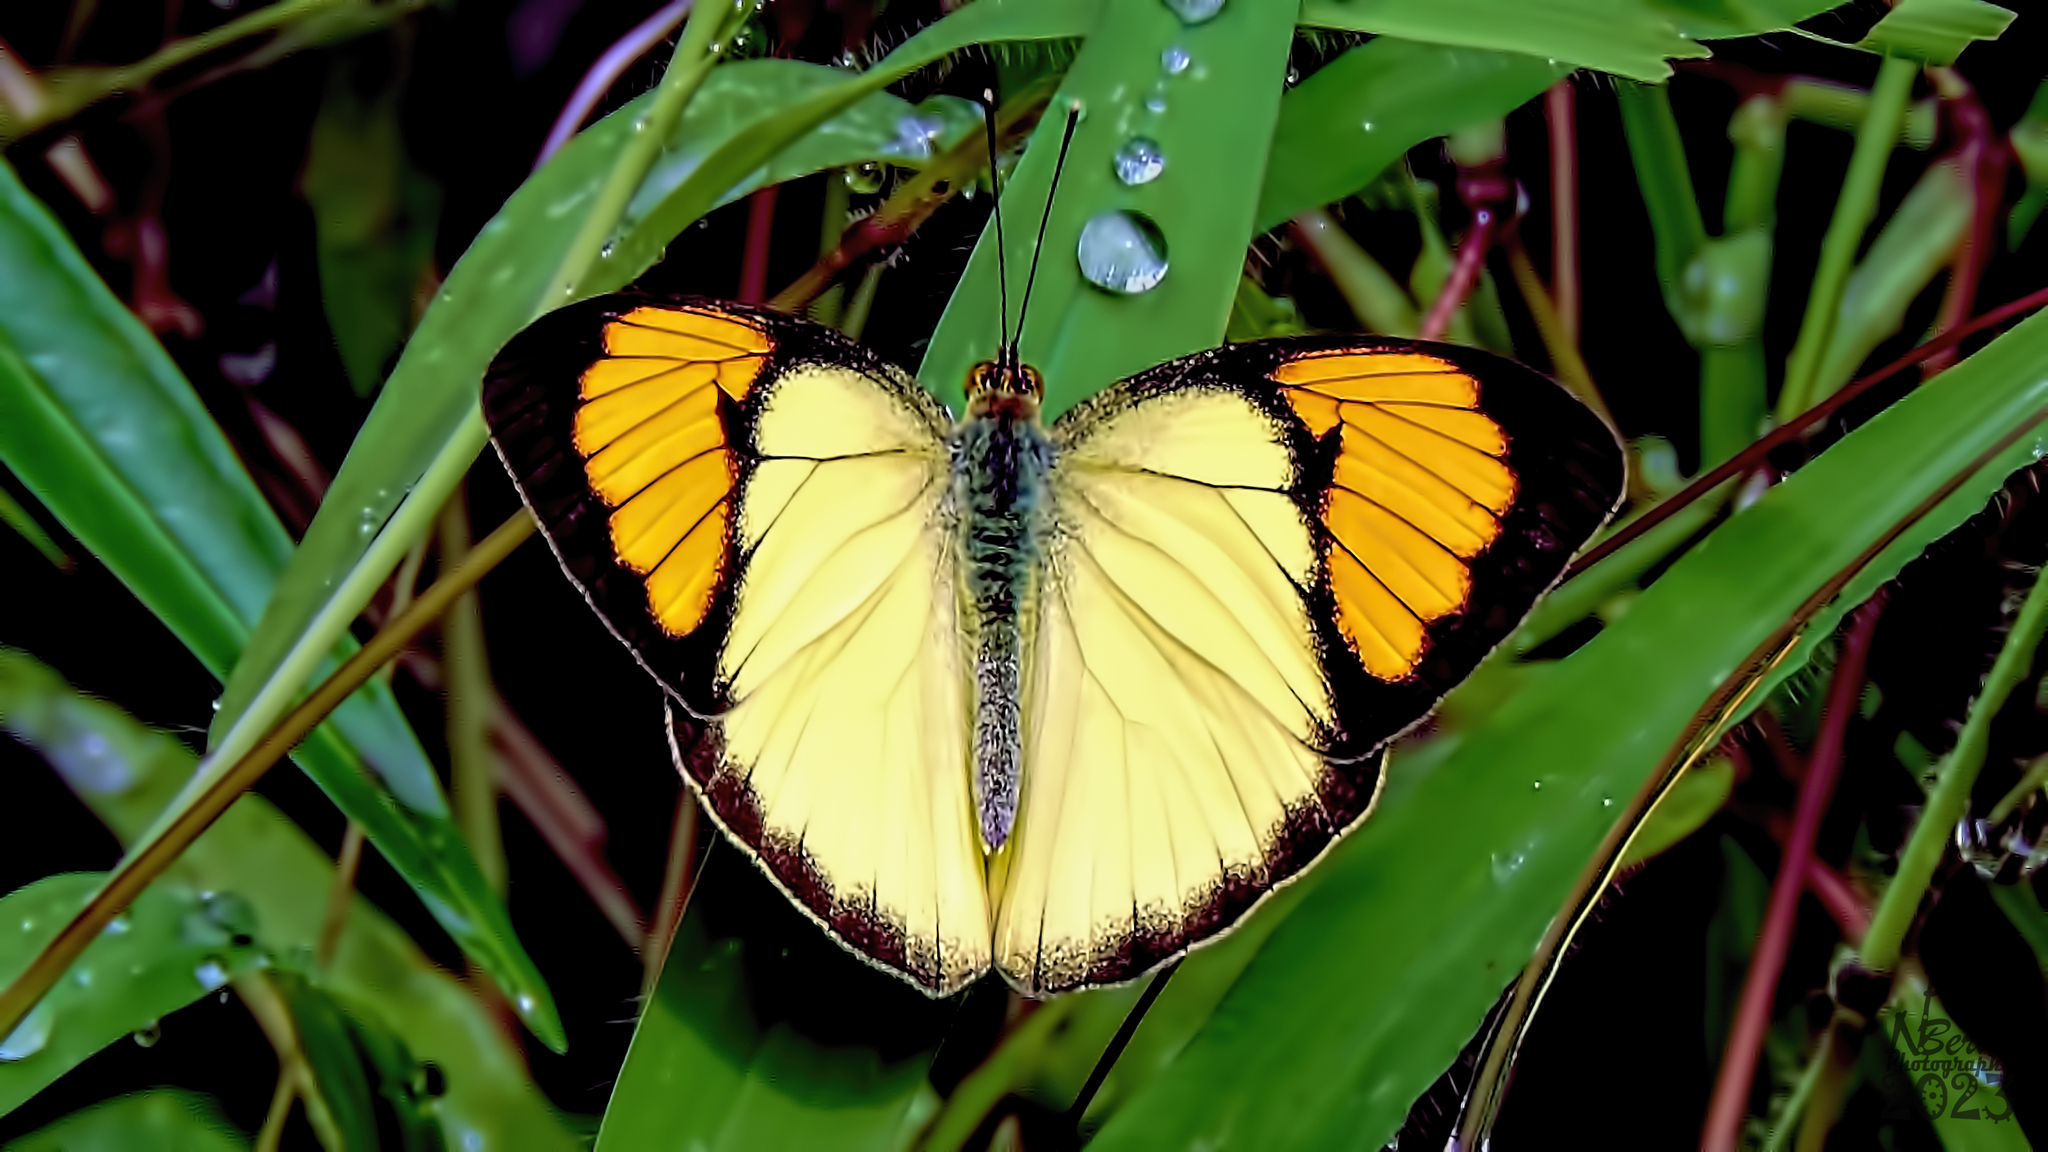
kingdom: Animalia
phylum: Arthropoda
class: Insecta
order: Lepidoptera
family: Pieridae
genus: Ixias
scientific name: Ixias pyrene
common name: Yellow orange tip
